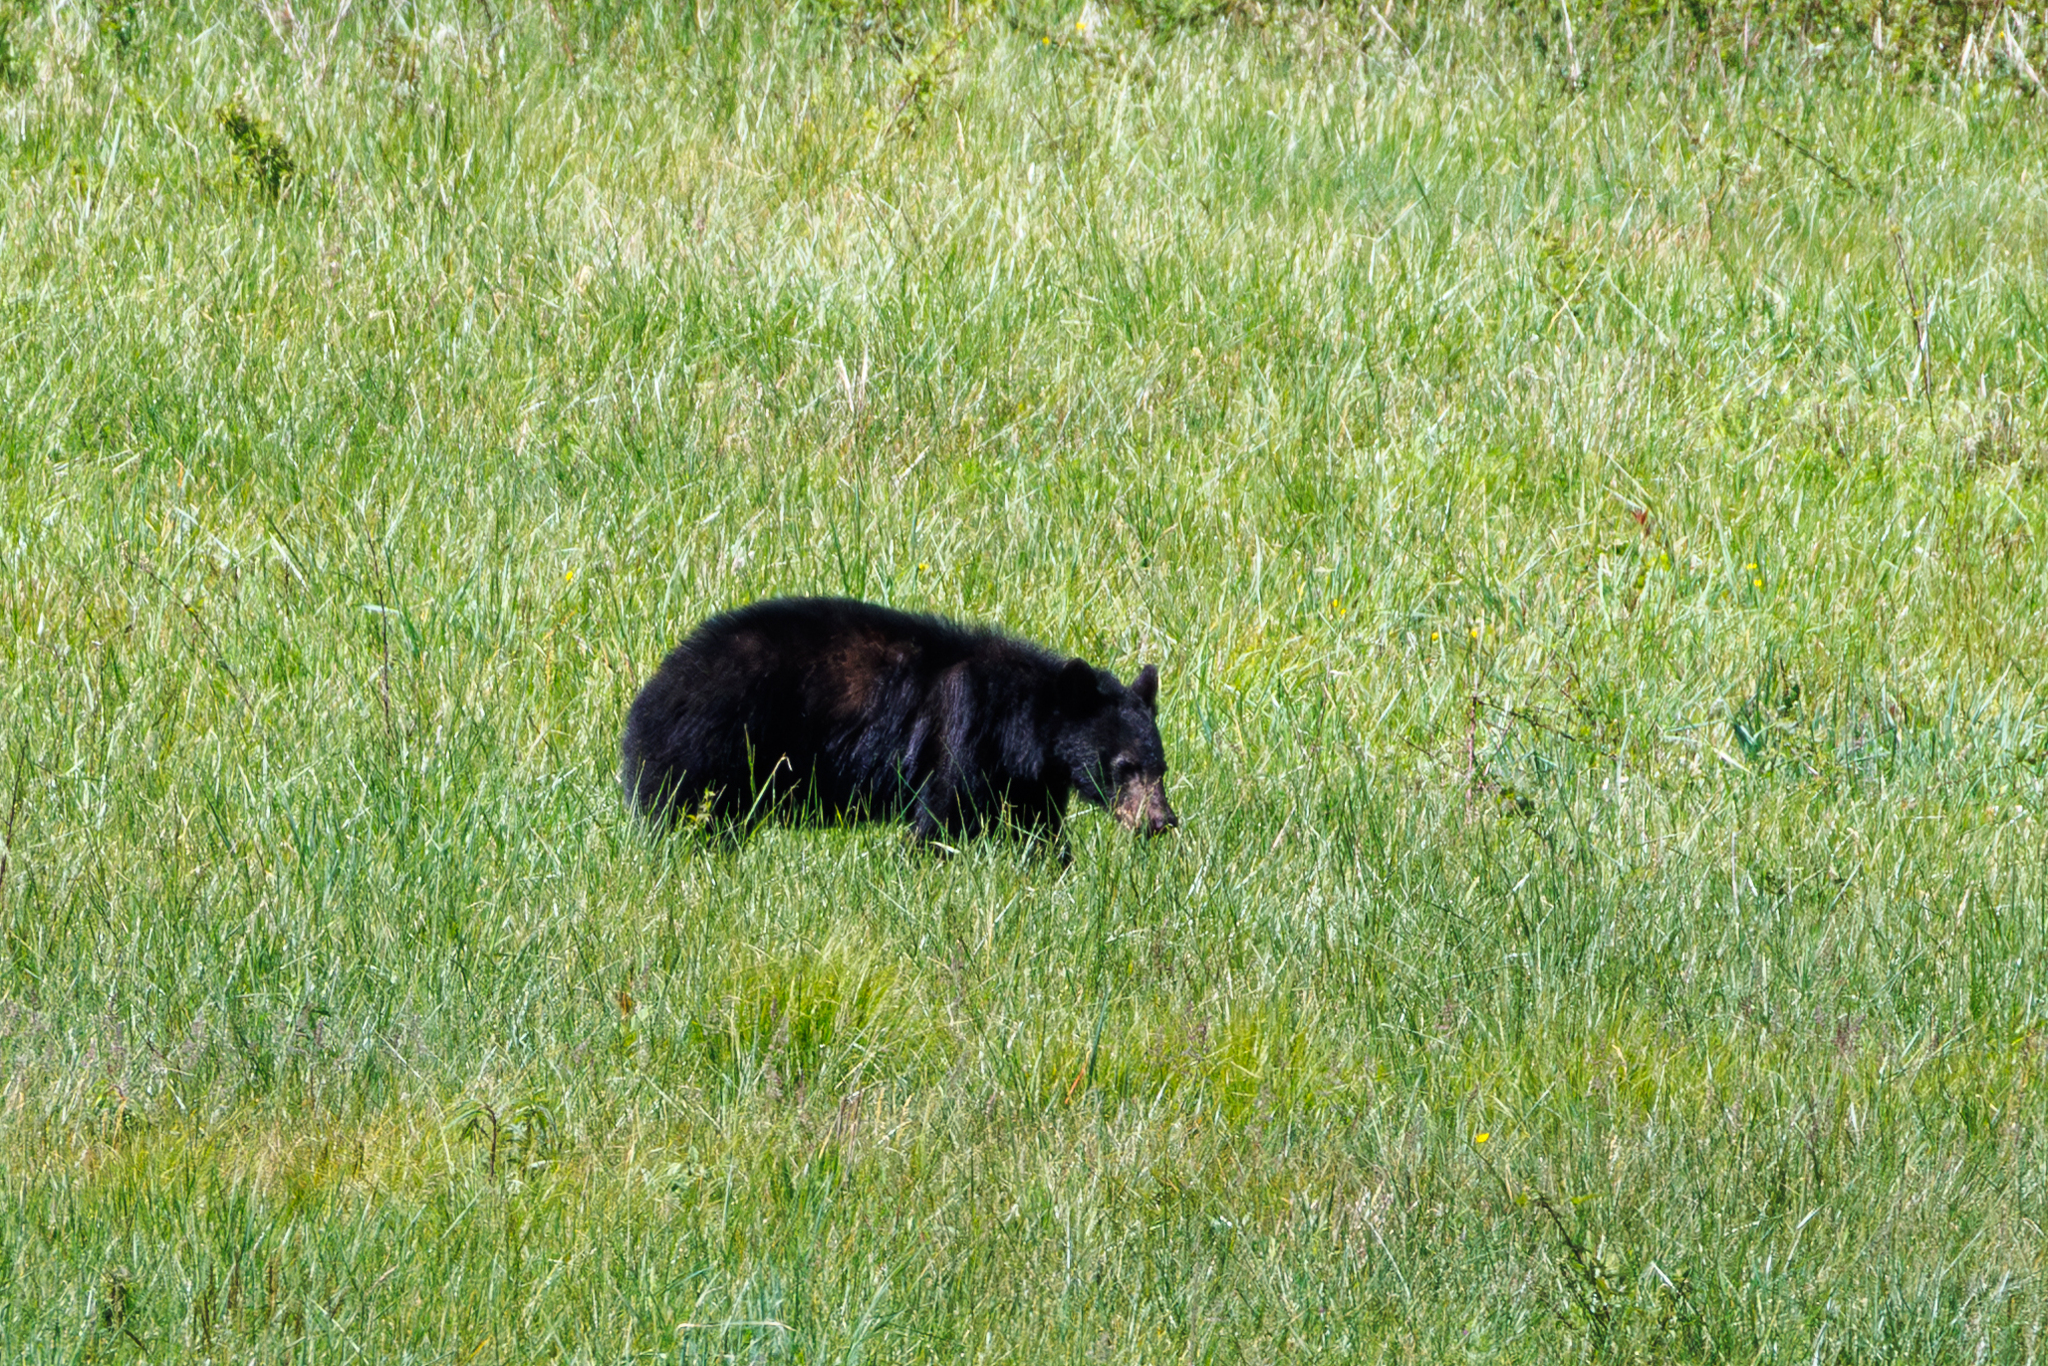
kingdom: Animalia
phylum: Chordata
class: Mammalia
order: Carnivora
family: Ursidae
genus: Ursus
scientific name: Ursus americanus
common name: American black bear
